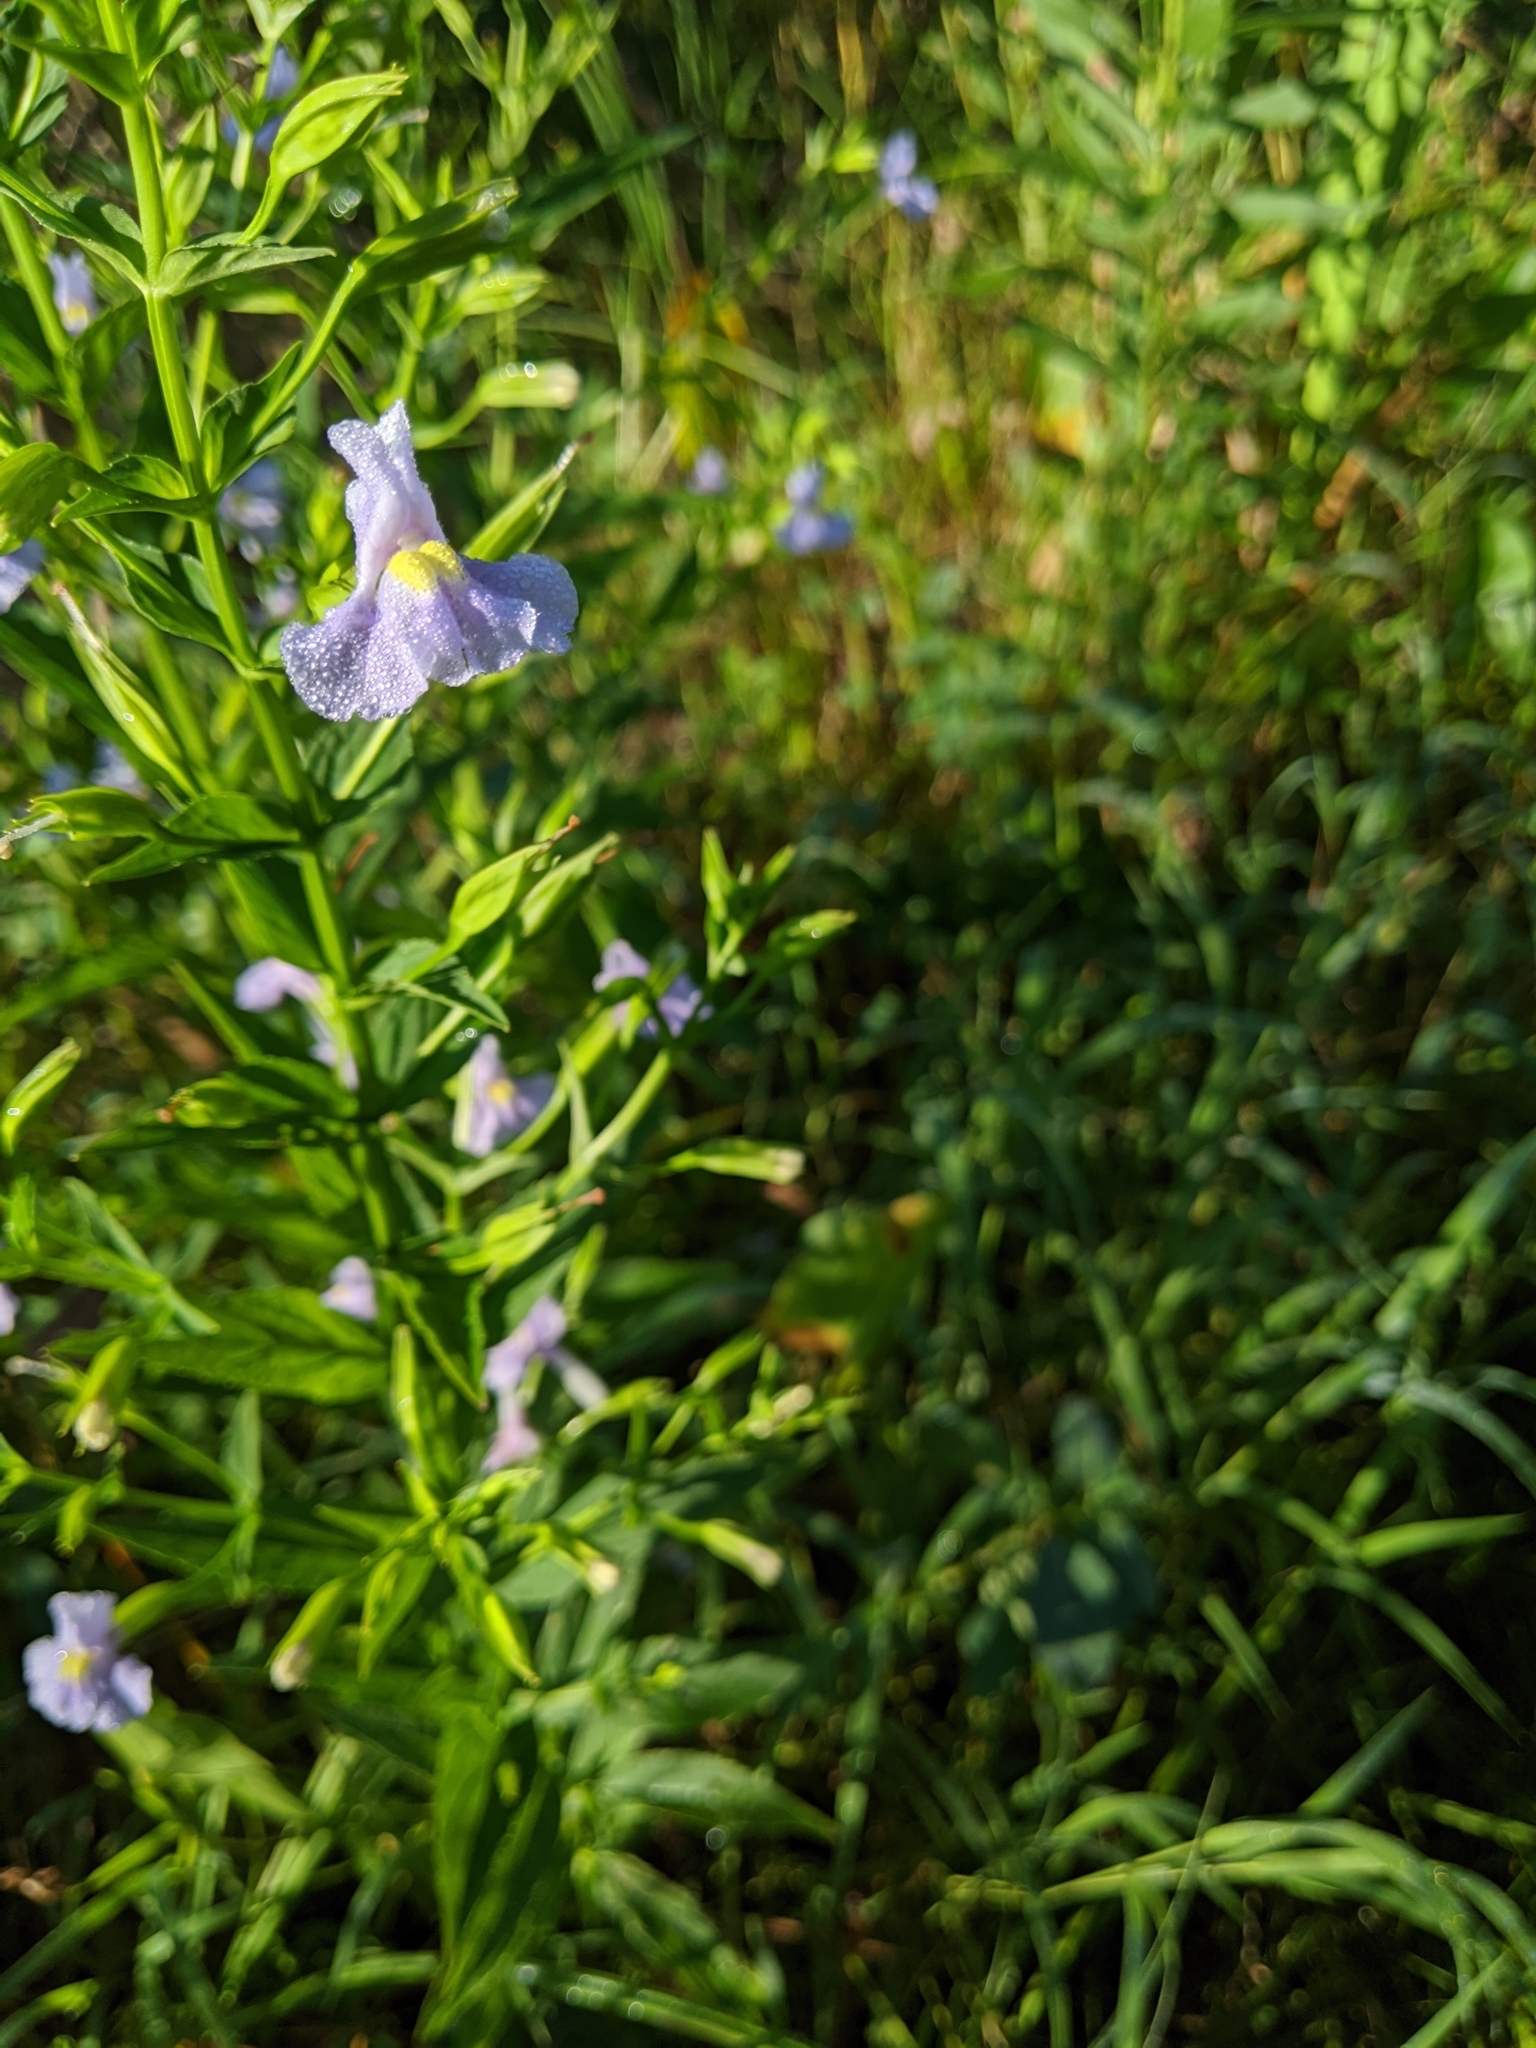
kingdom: Plantae
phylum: Tracheophyta
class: Magnoliopsida
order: Lamiales
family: Phrymaceae
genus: Mimulus
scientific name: Mimulus ringens
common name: Allegheny monkeyflower
